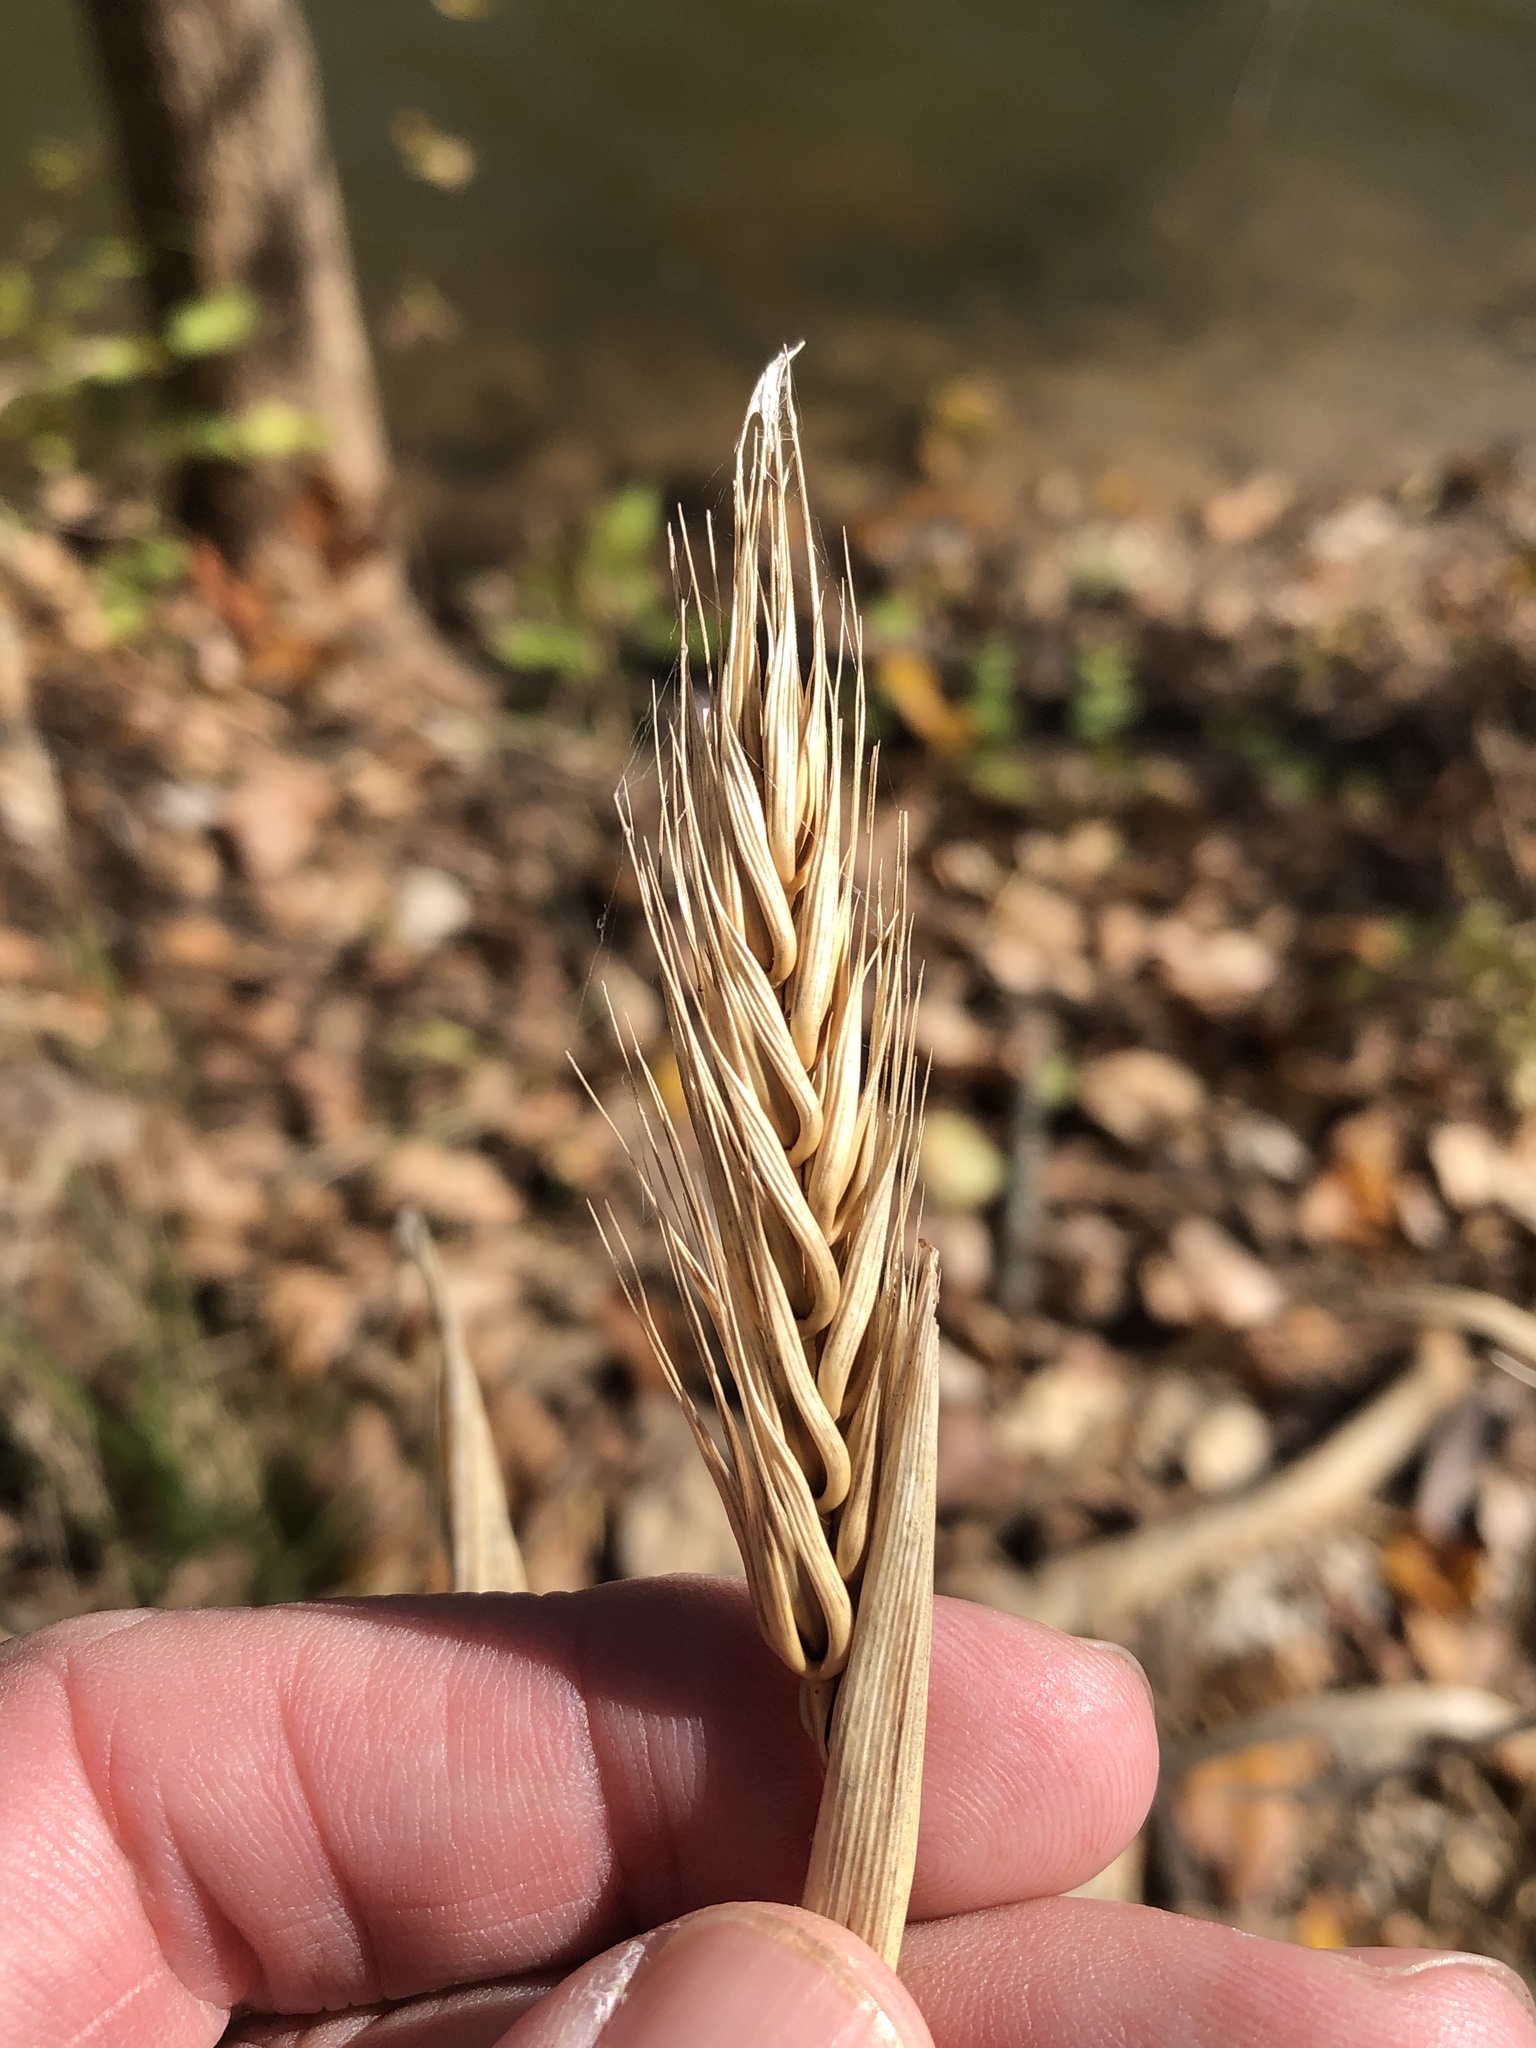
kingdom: Plantae
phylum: Tracheophyta
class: Liliopsida
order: Poales
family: Poaceae
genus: Elymus
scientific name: Elymus virginicus
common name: Common eastern wildrye
